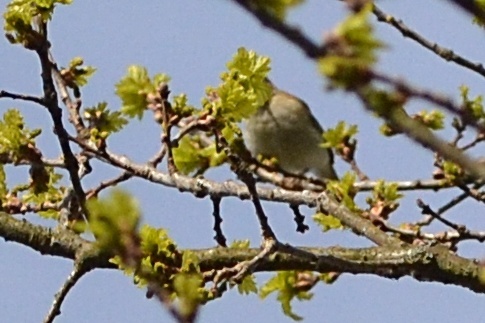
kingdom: Animalia
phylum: Chordata
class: Aves
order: Passeriformes
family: Phylloscopidae
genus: Phylloscopus
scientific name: Phylloscopus collybita
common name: Common chiffchaff
